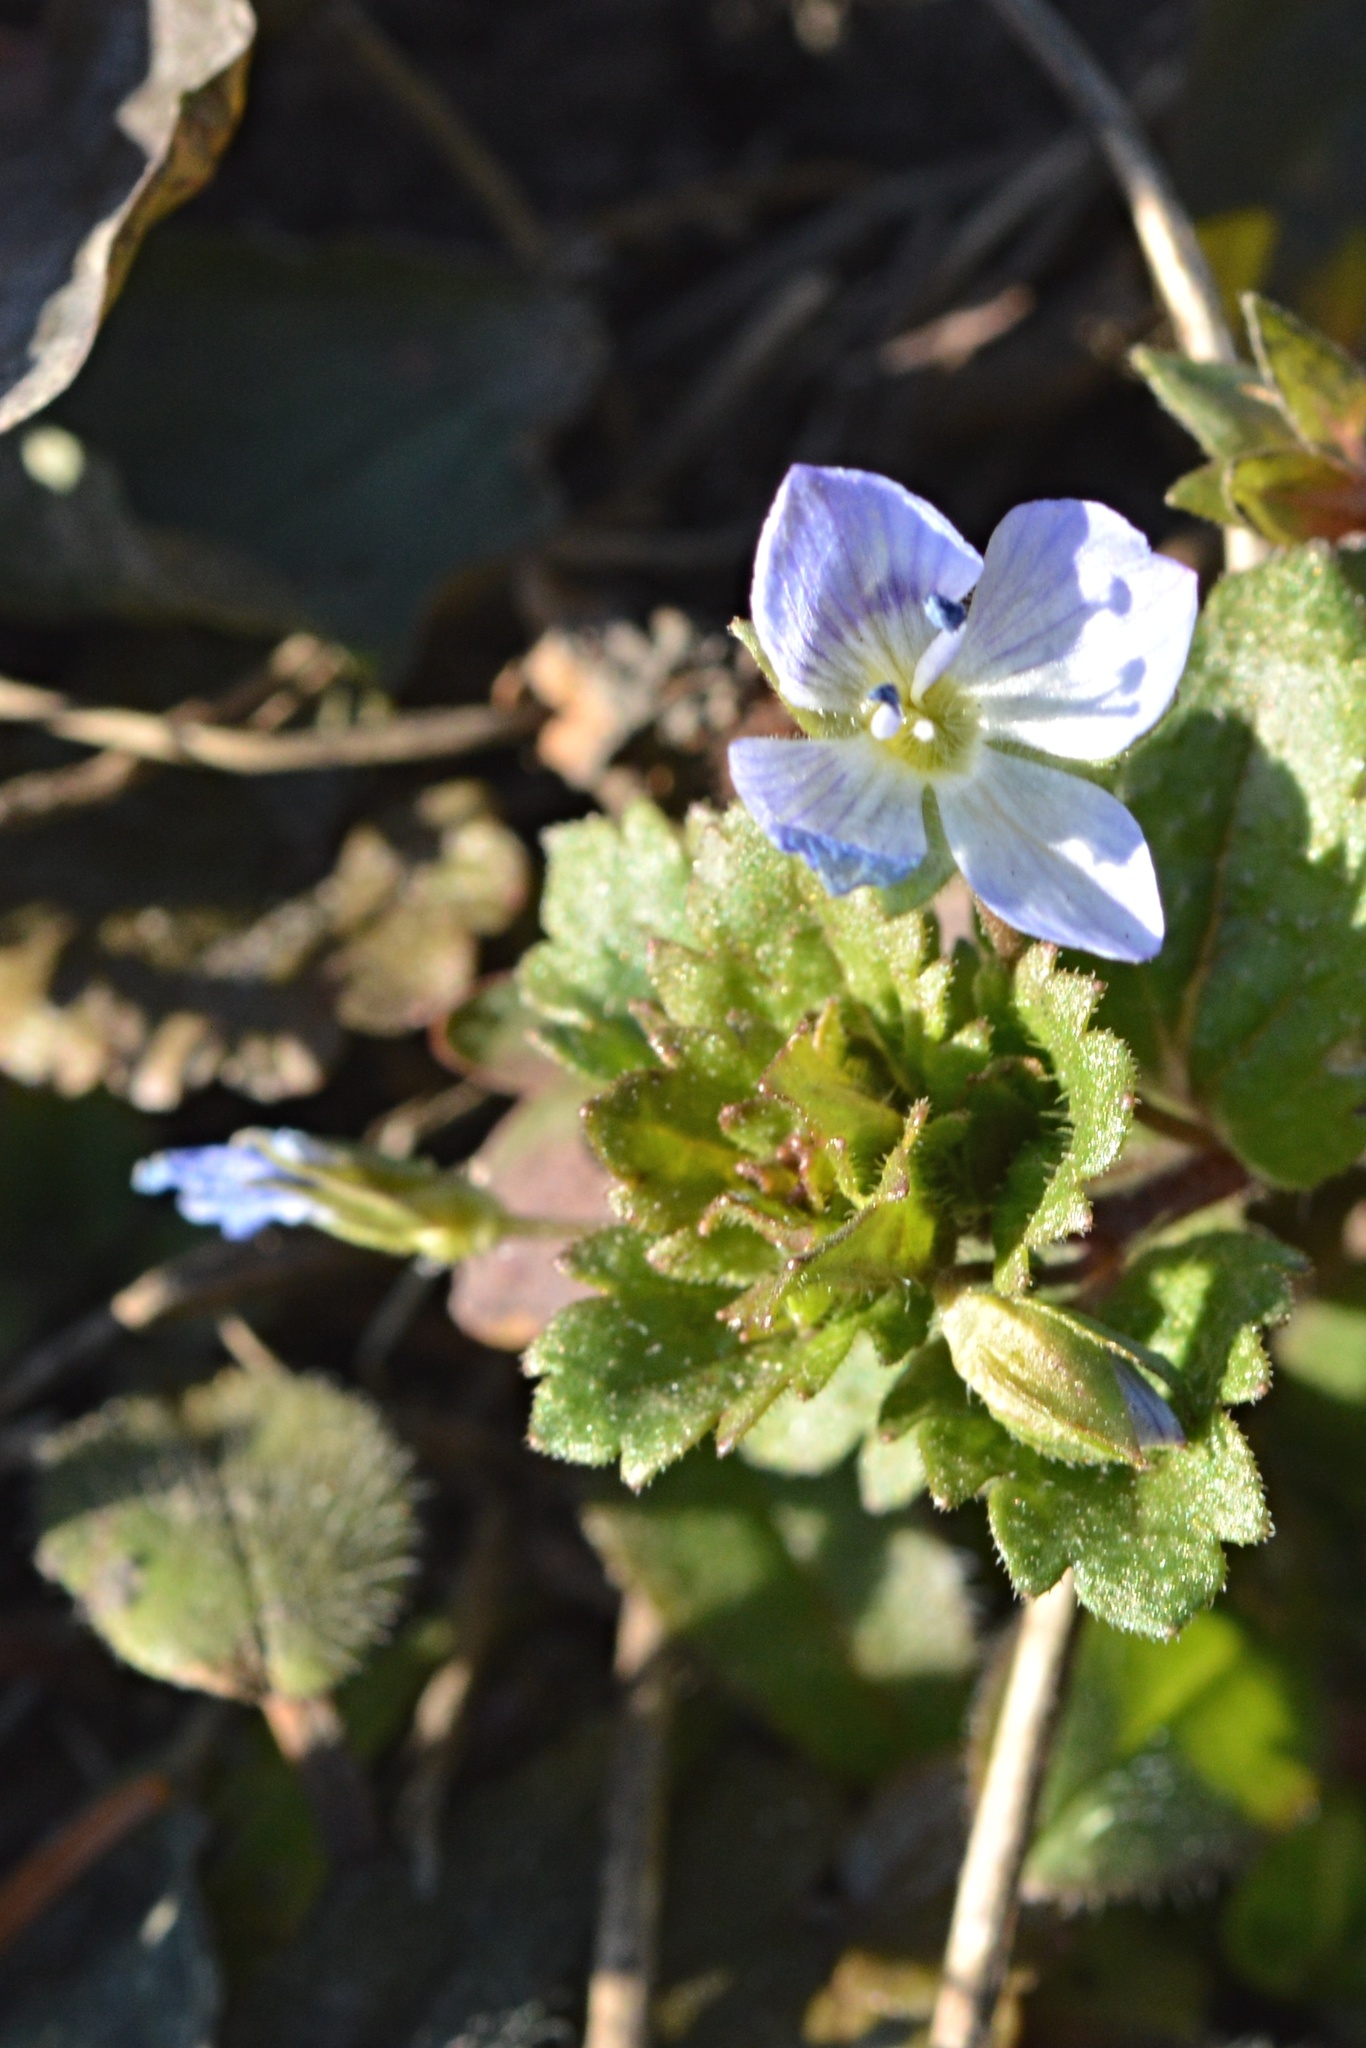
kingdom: Plantae
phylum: Tracheophyta
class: Magnoliopsida
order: Lamiales
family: Plantaginaceae
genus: Veronica
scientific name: Veronica persica
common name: Common field-speedwell
